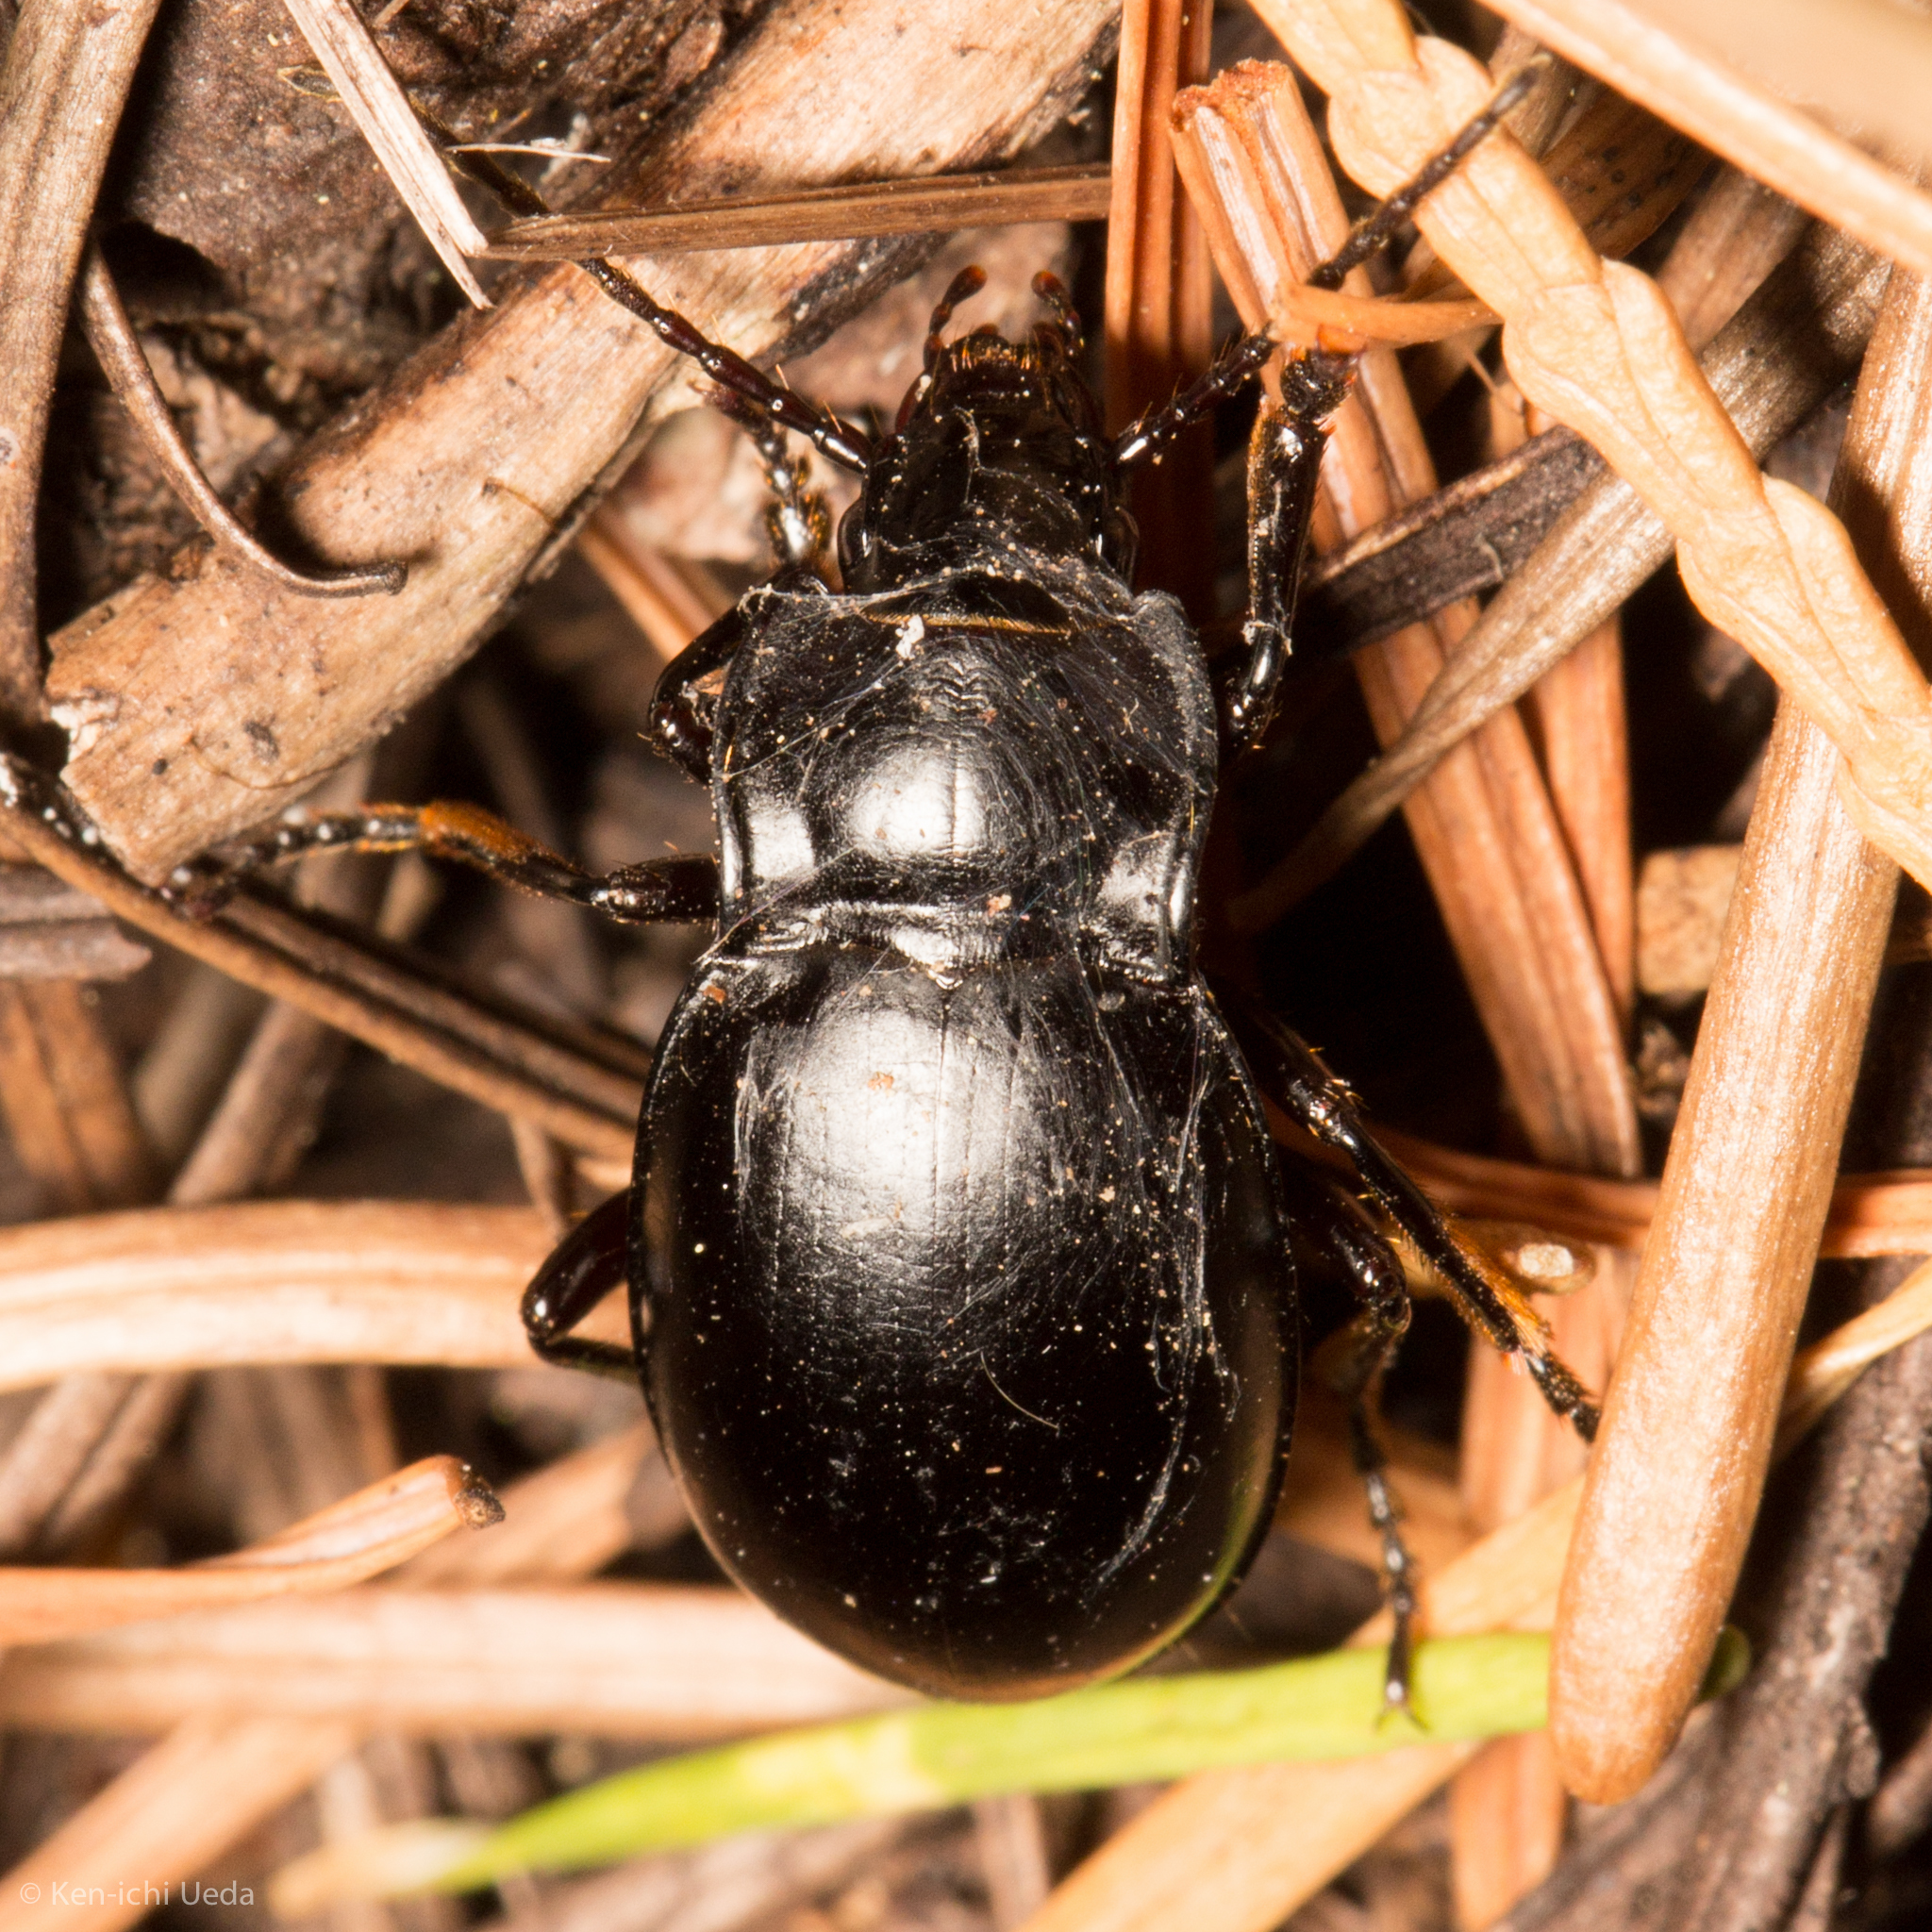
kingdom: Animalia
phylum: Arthropoda
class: Insecta
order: Coleoptera
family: Carabidae
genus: Metrius
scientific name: Metrius contractus
